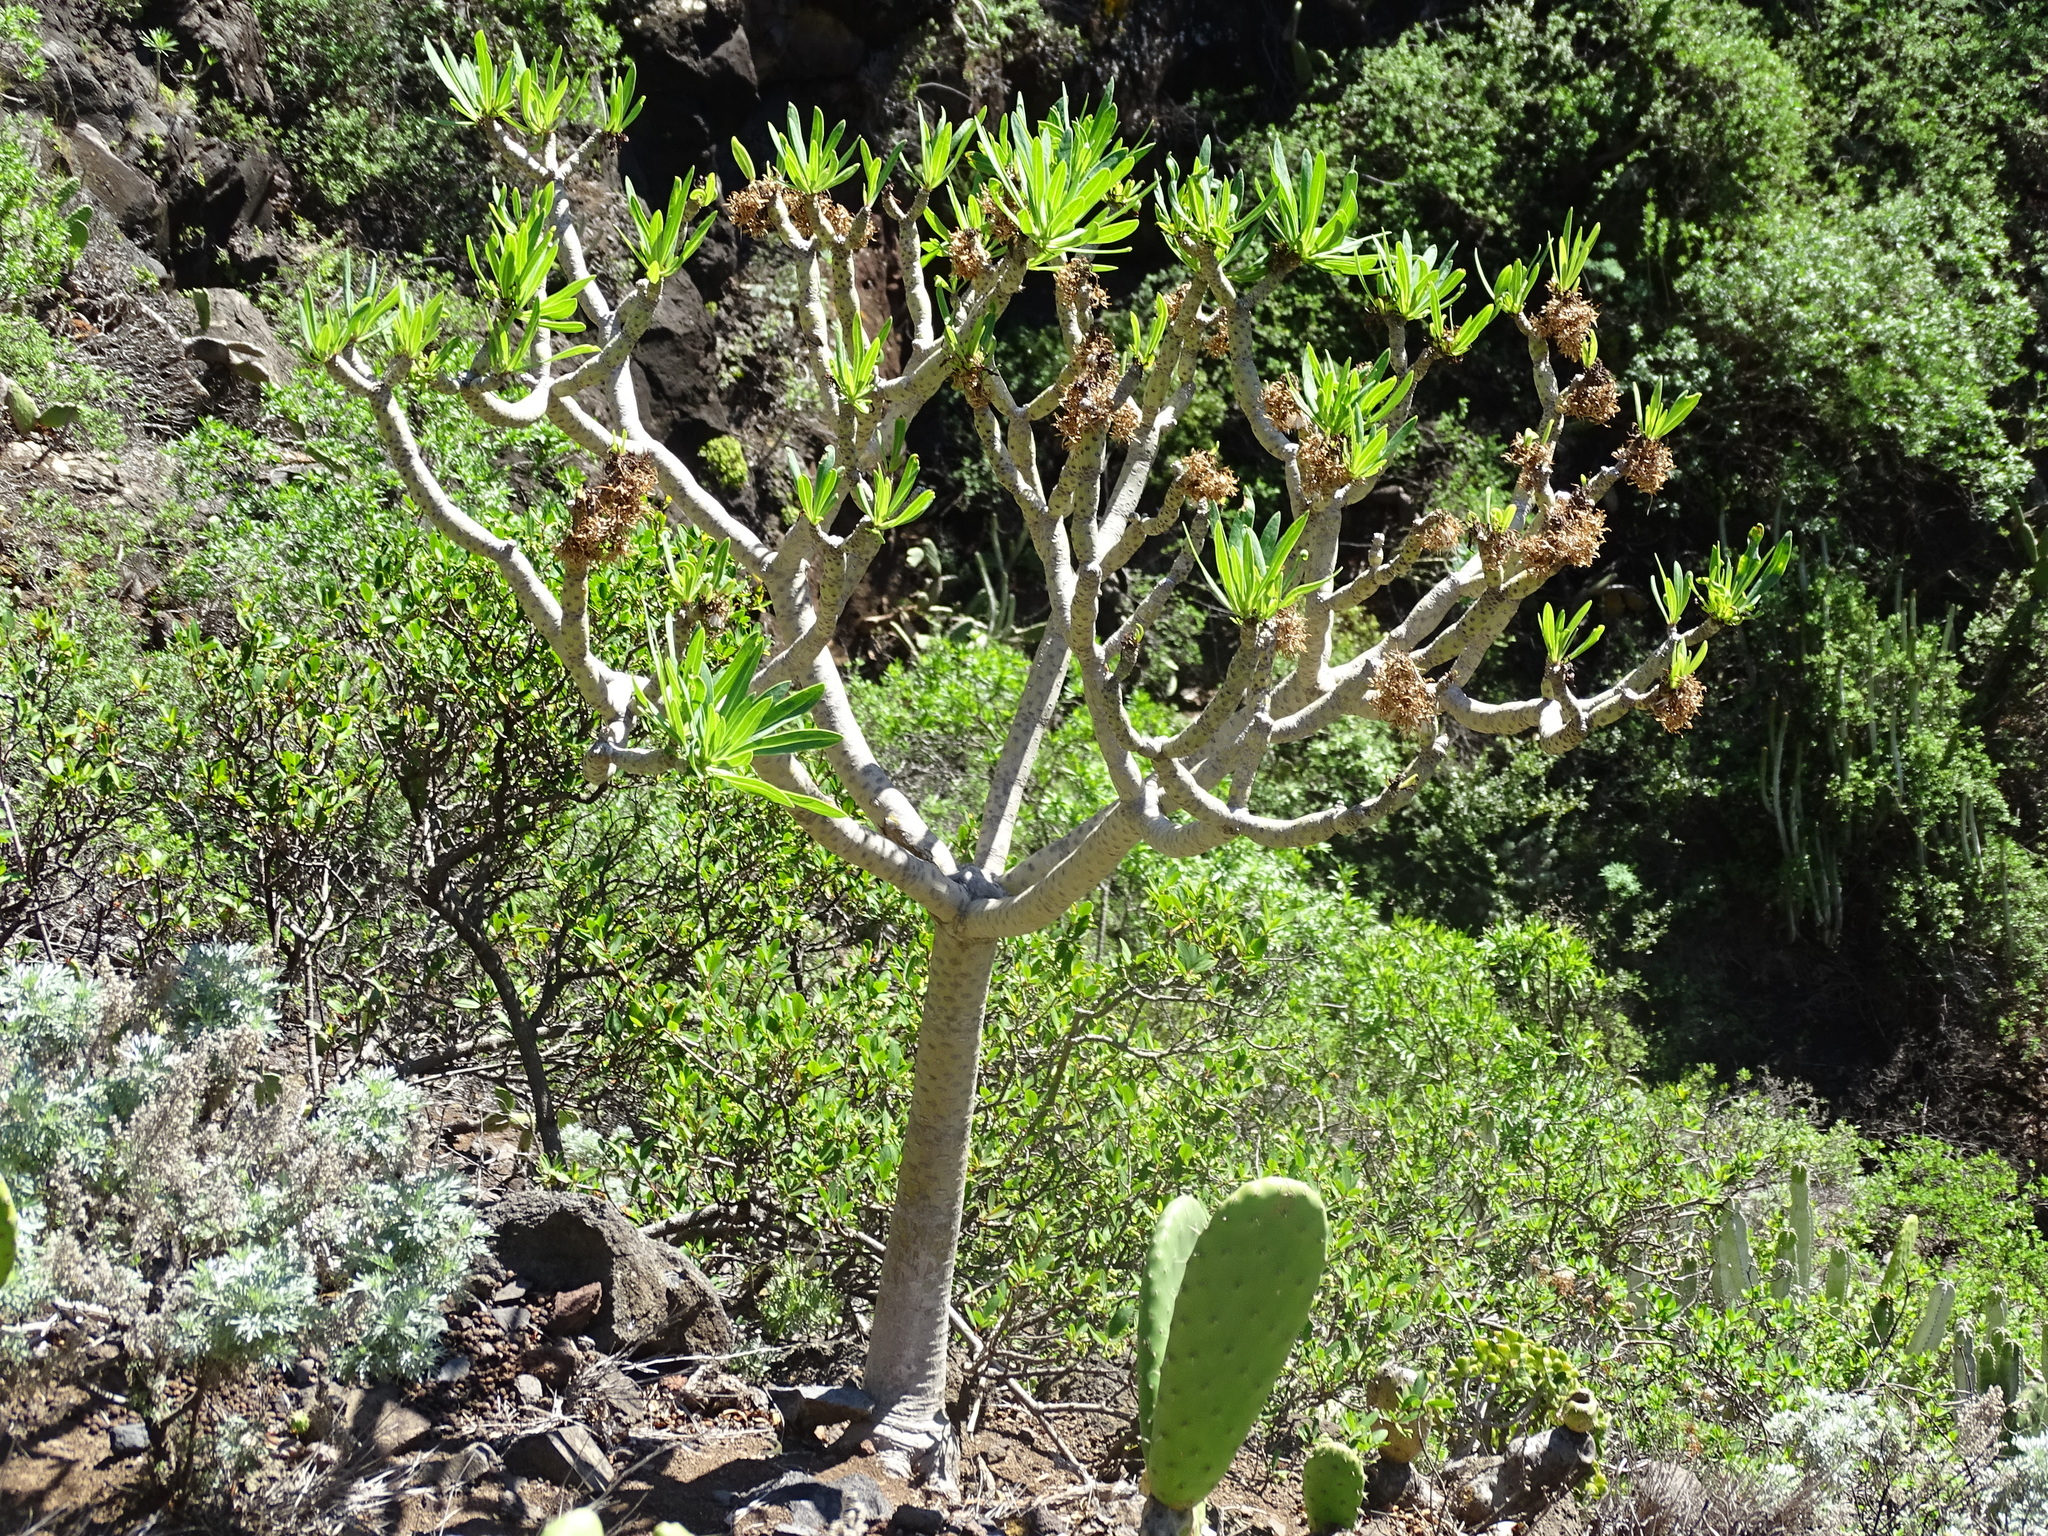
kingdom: Plantae
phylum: Tracheophyta
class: Magnoliopsida
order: Asterales
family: Asteraceae
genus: Kleinia
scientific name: Kleinia neriifolia
